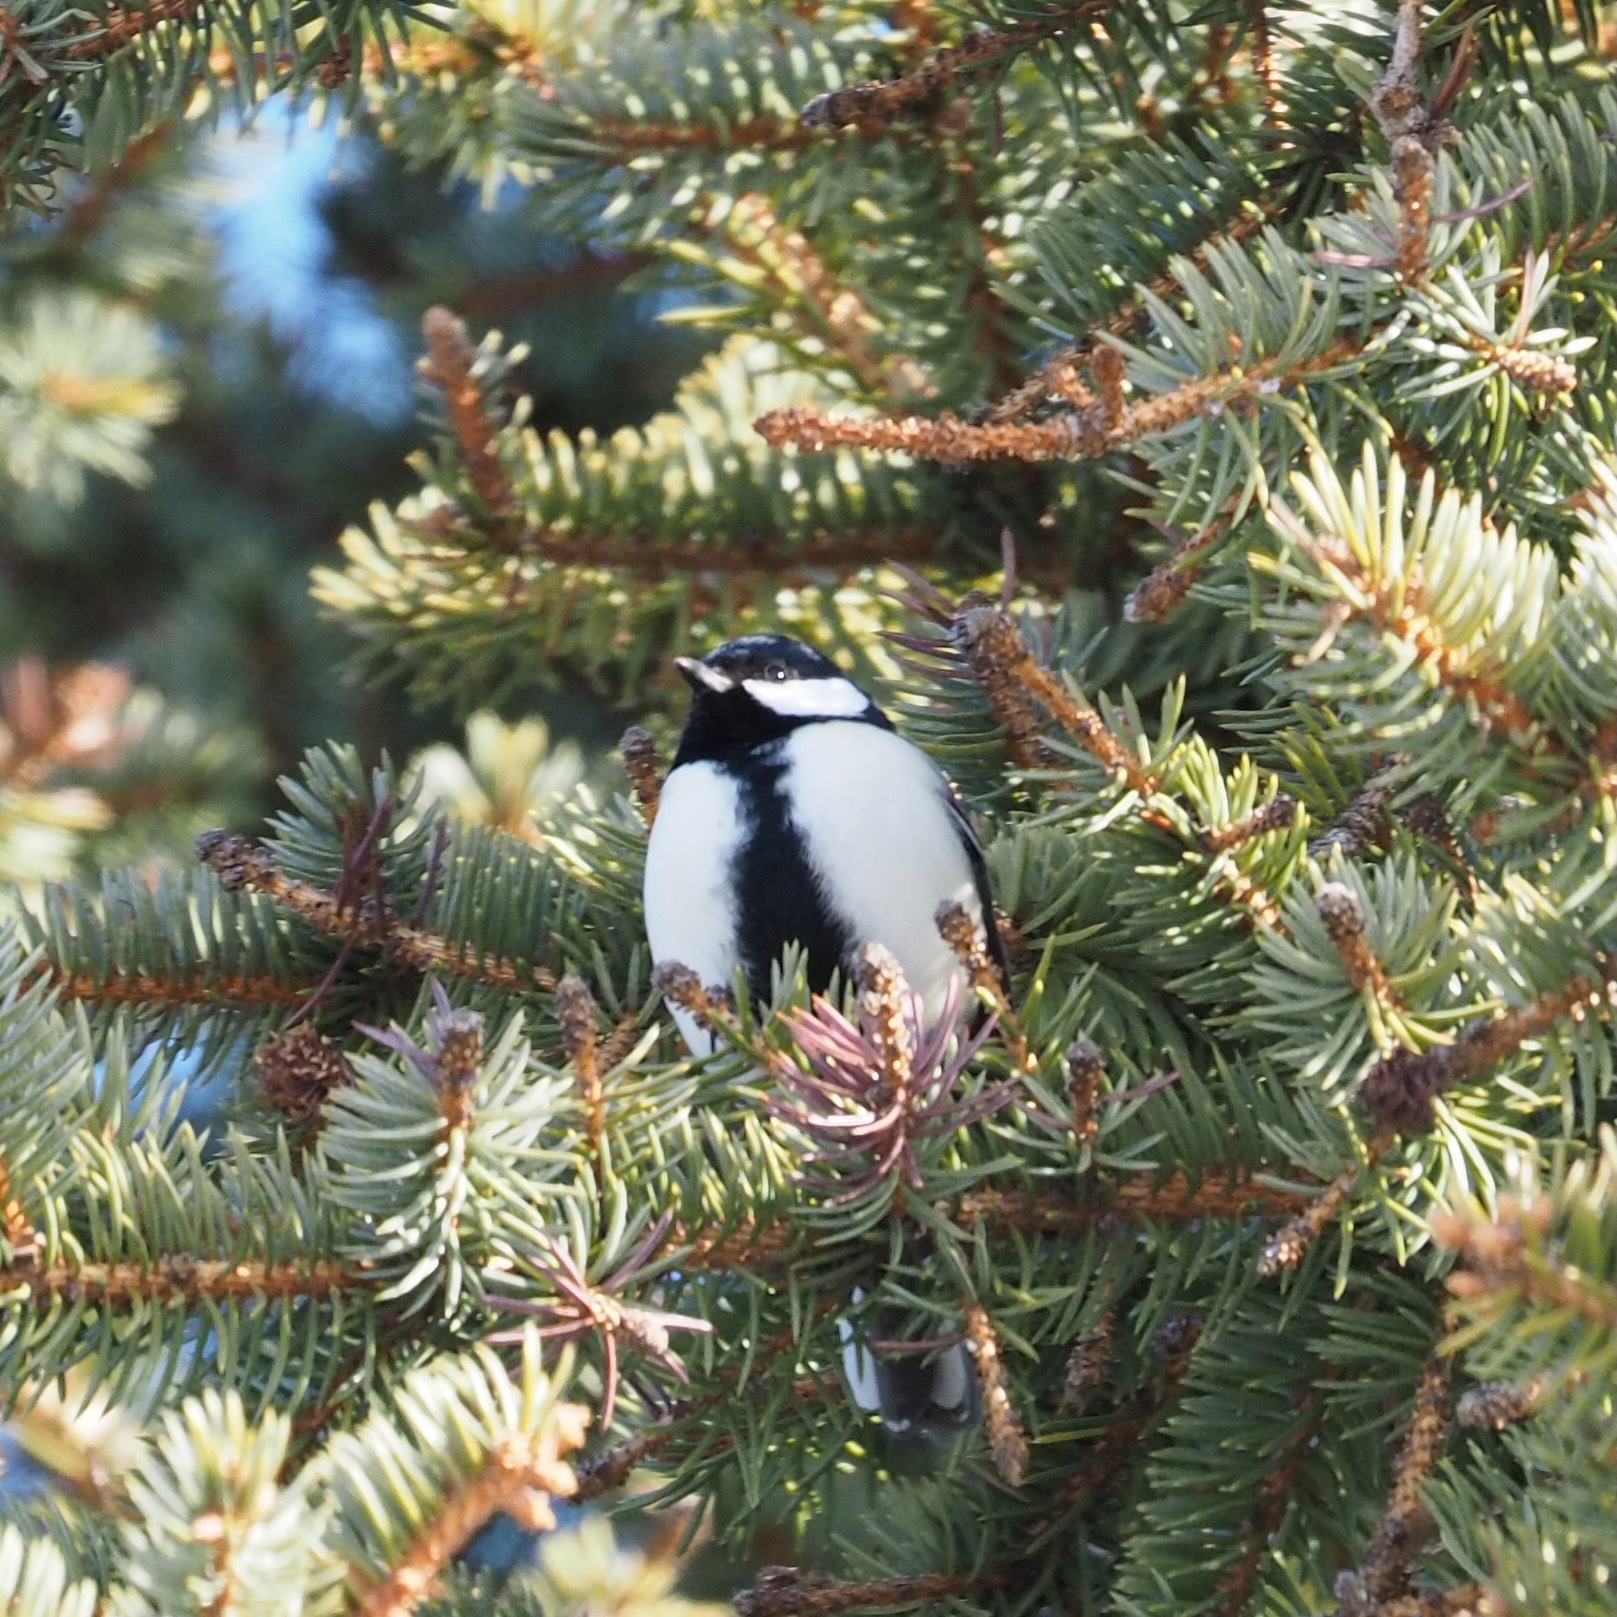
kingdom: Animalia
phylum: Chordata
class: Aves
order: Passeriformes
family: Paridae
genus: Parus
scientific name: Parus minor
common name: Japanese tit
